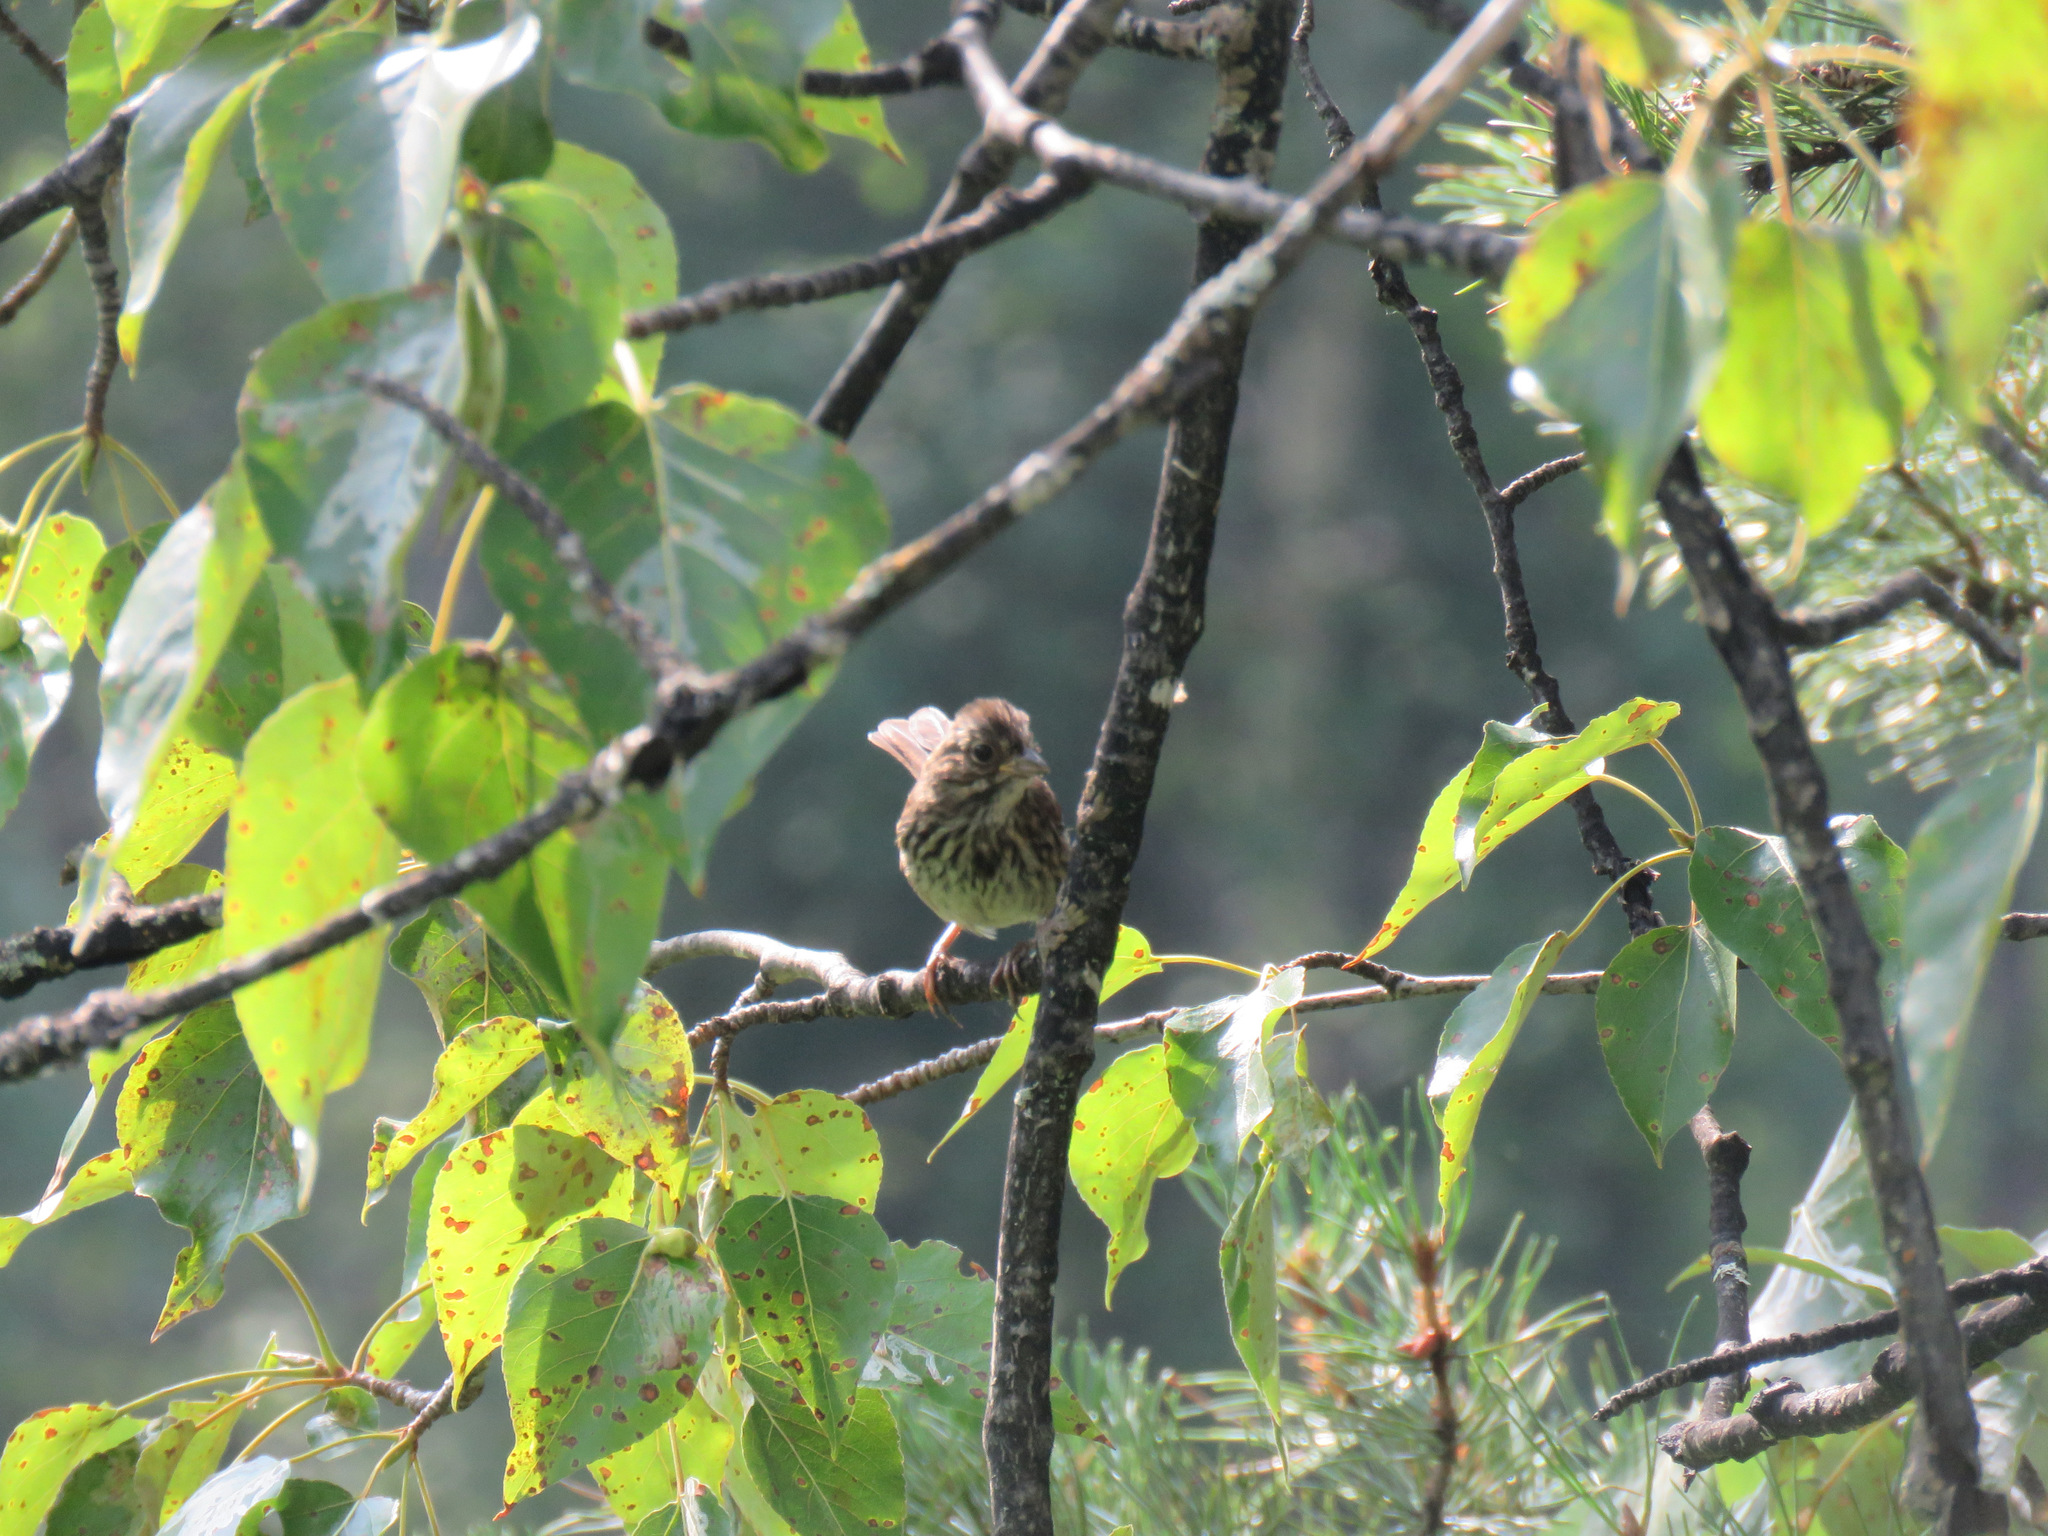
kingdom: Animalia
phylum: Chordata
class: Aves
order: Passeriformes
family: Passerellidae
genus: Melospiza
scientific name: Melospiza melodia
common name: Song sparrow
